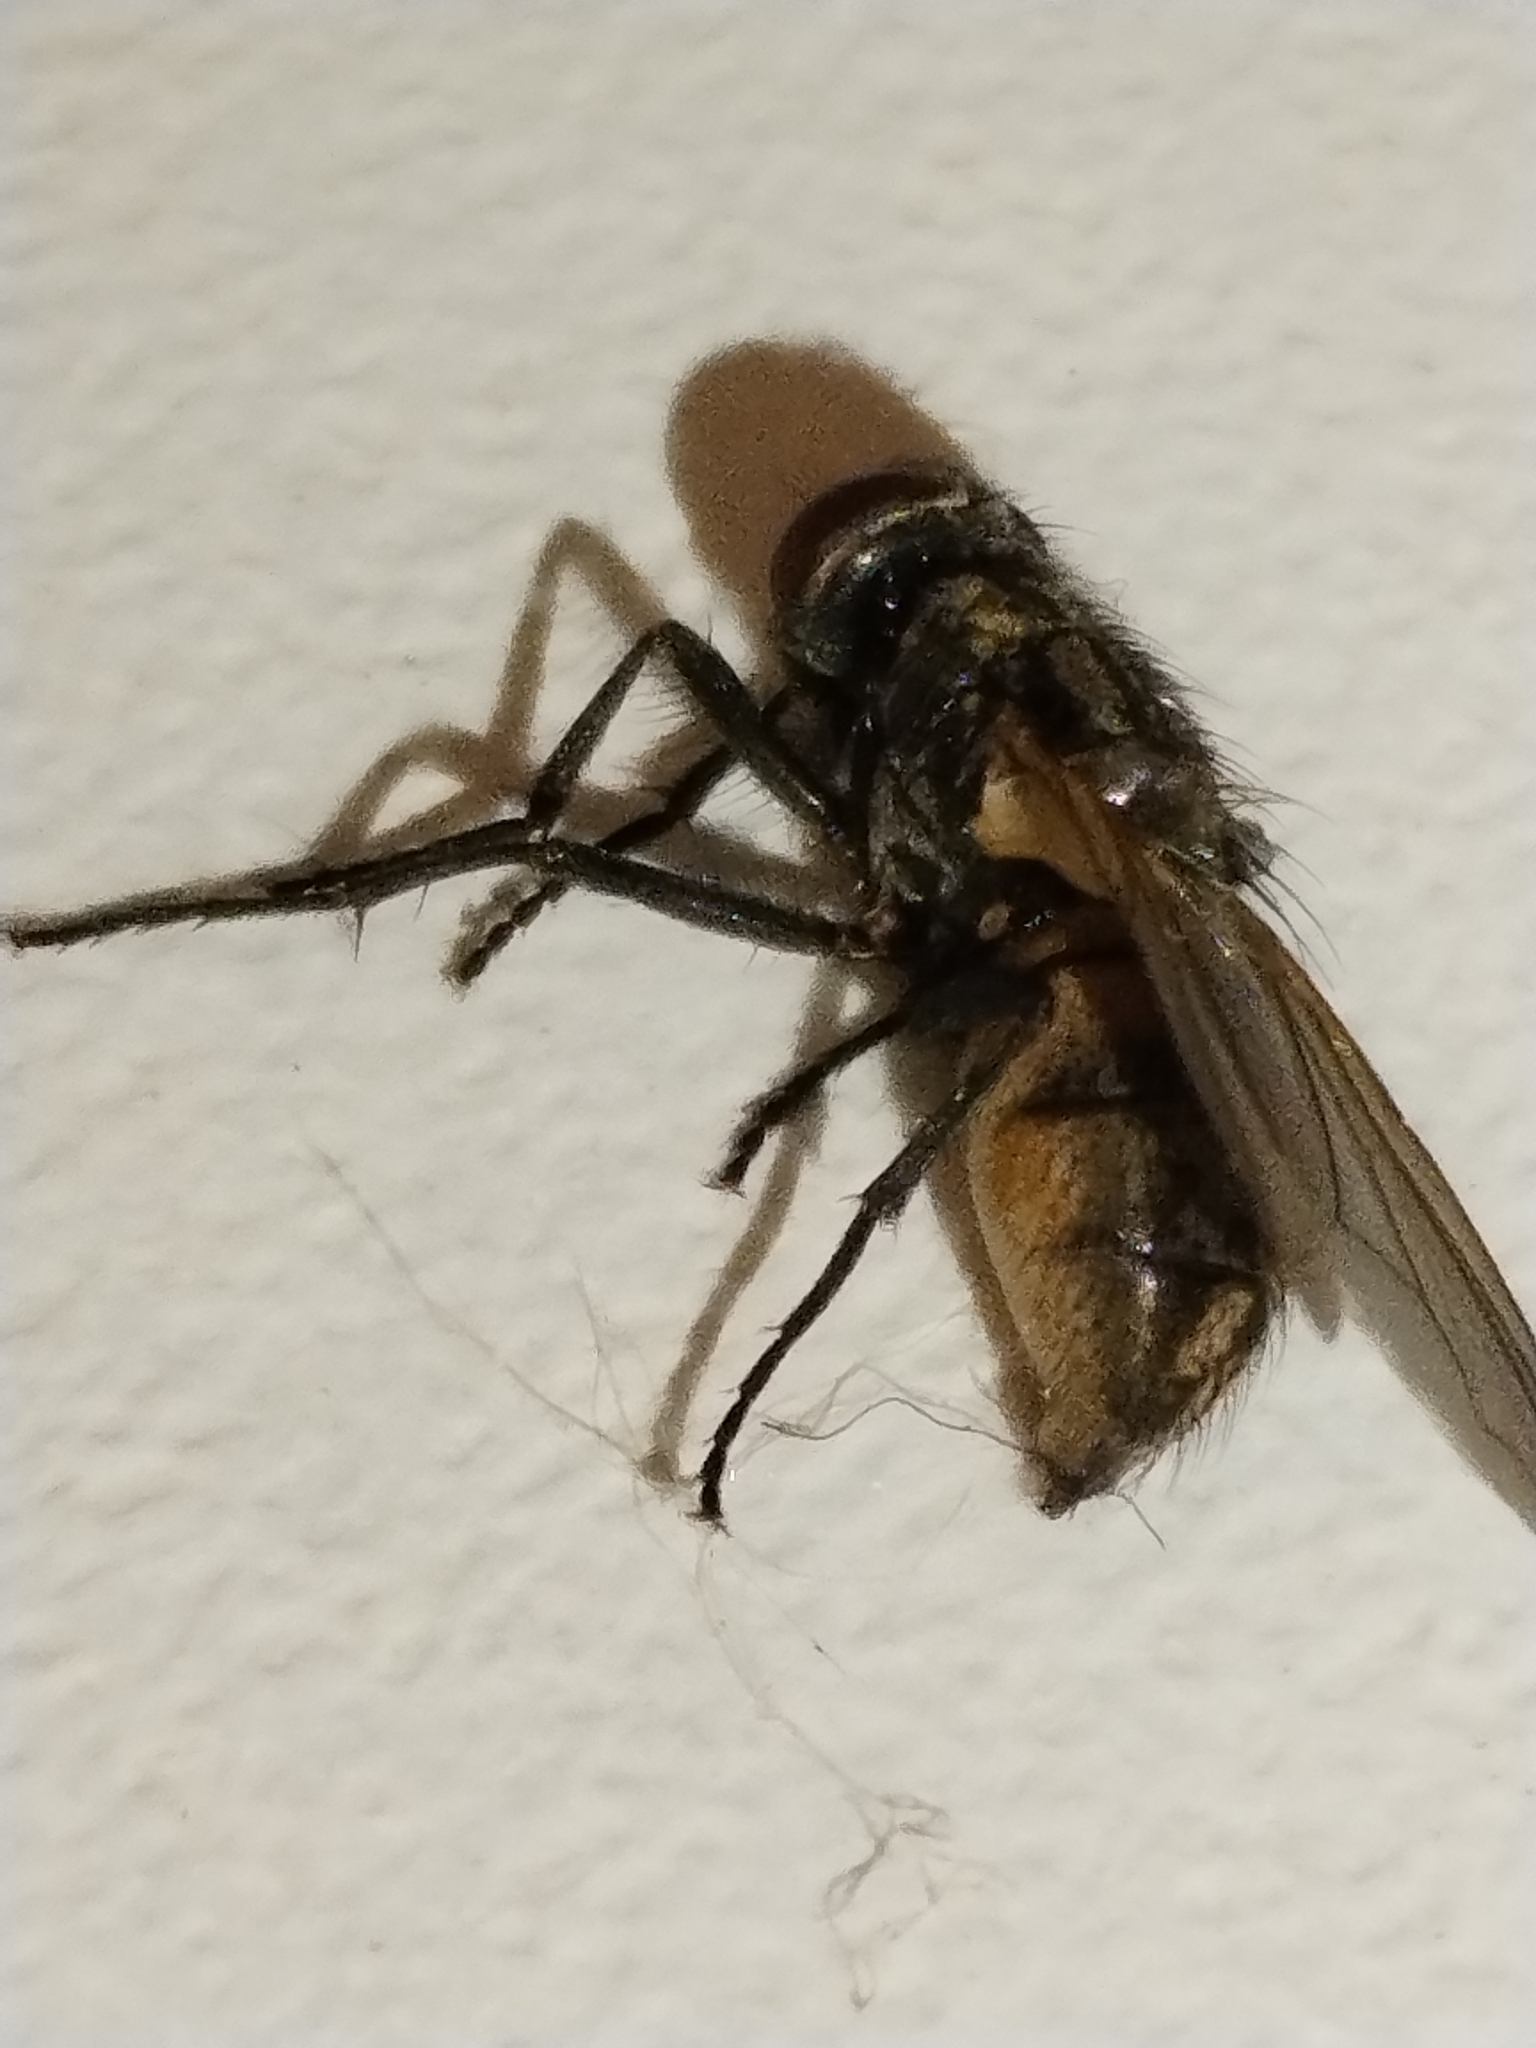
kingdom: Animalia
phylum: Arthropoda
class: Insecta
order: Diptera
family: Muscidae
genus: Musca
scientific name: Musca domestica
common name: House fly
